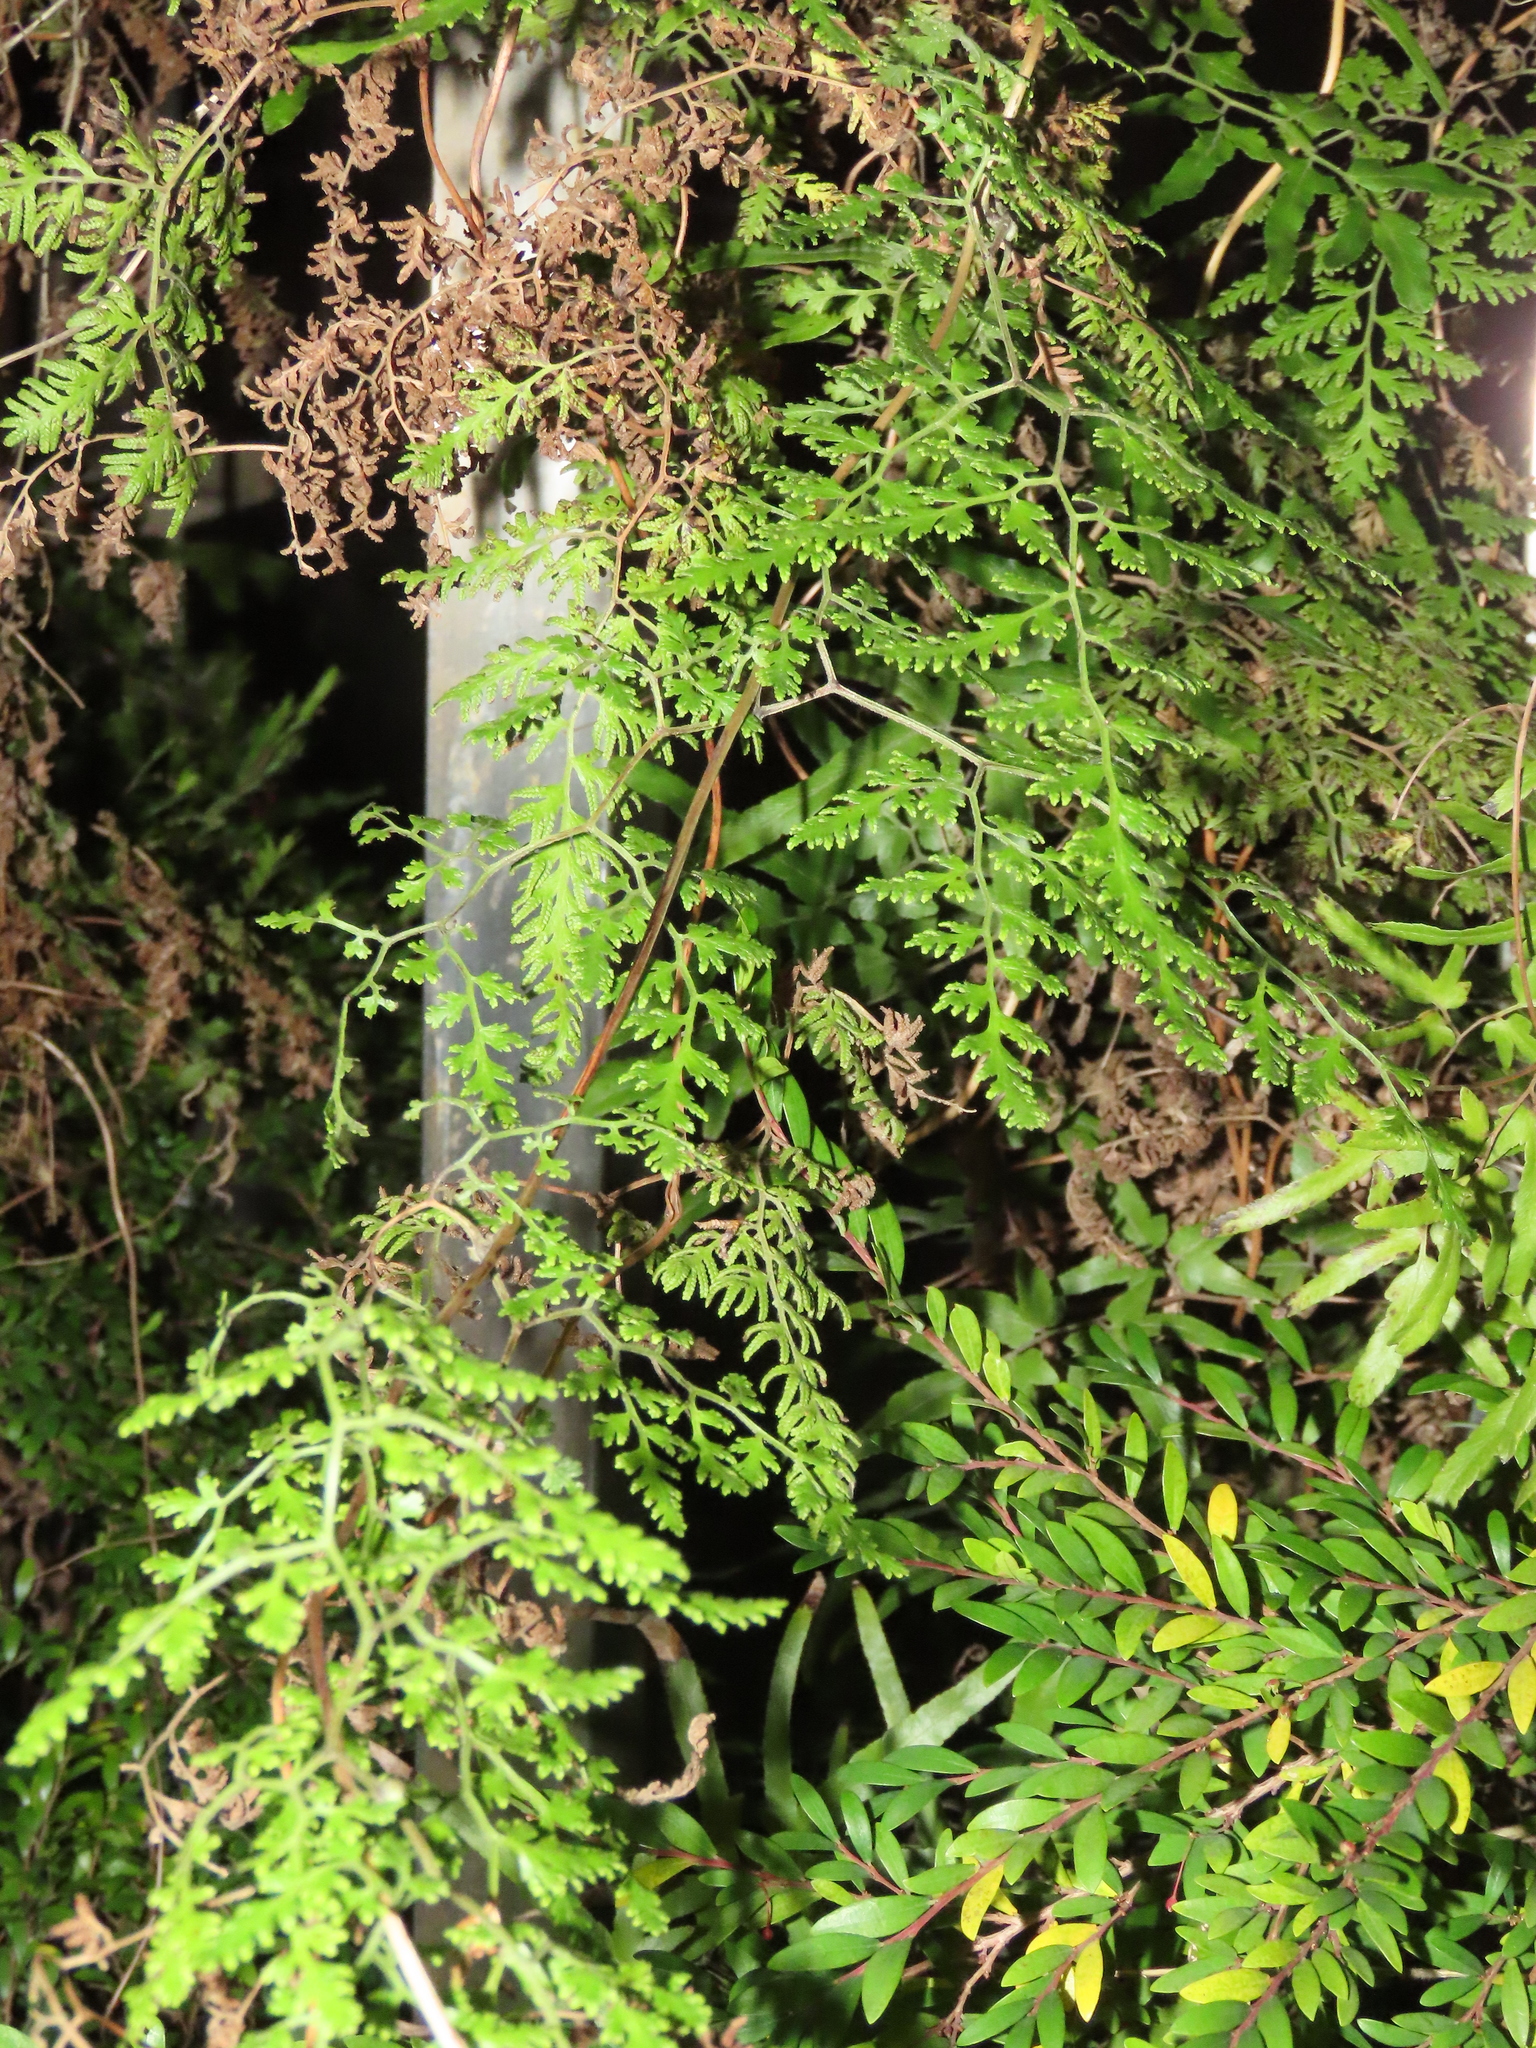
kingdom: Plantae
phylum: Tracheophyta
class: Polypodiopsida
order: Schizaeales
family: Lygodiaceae
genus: Lygodium
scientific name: Lygodium japonicum
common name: Japanese climbing fern
